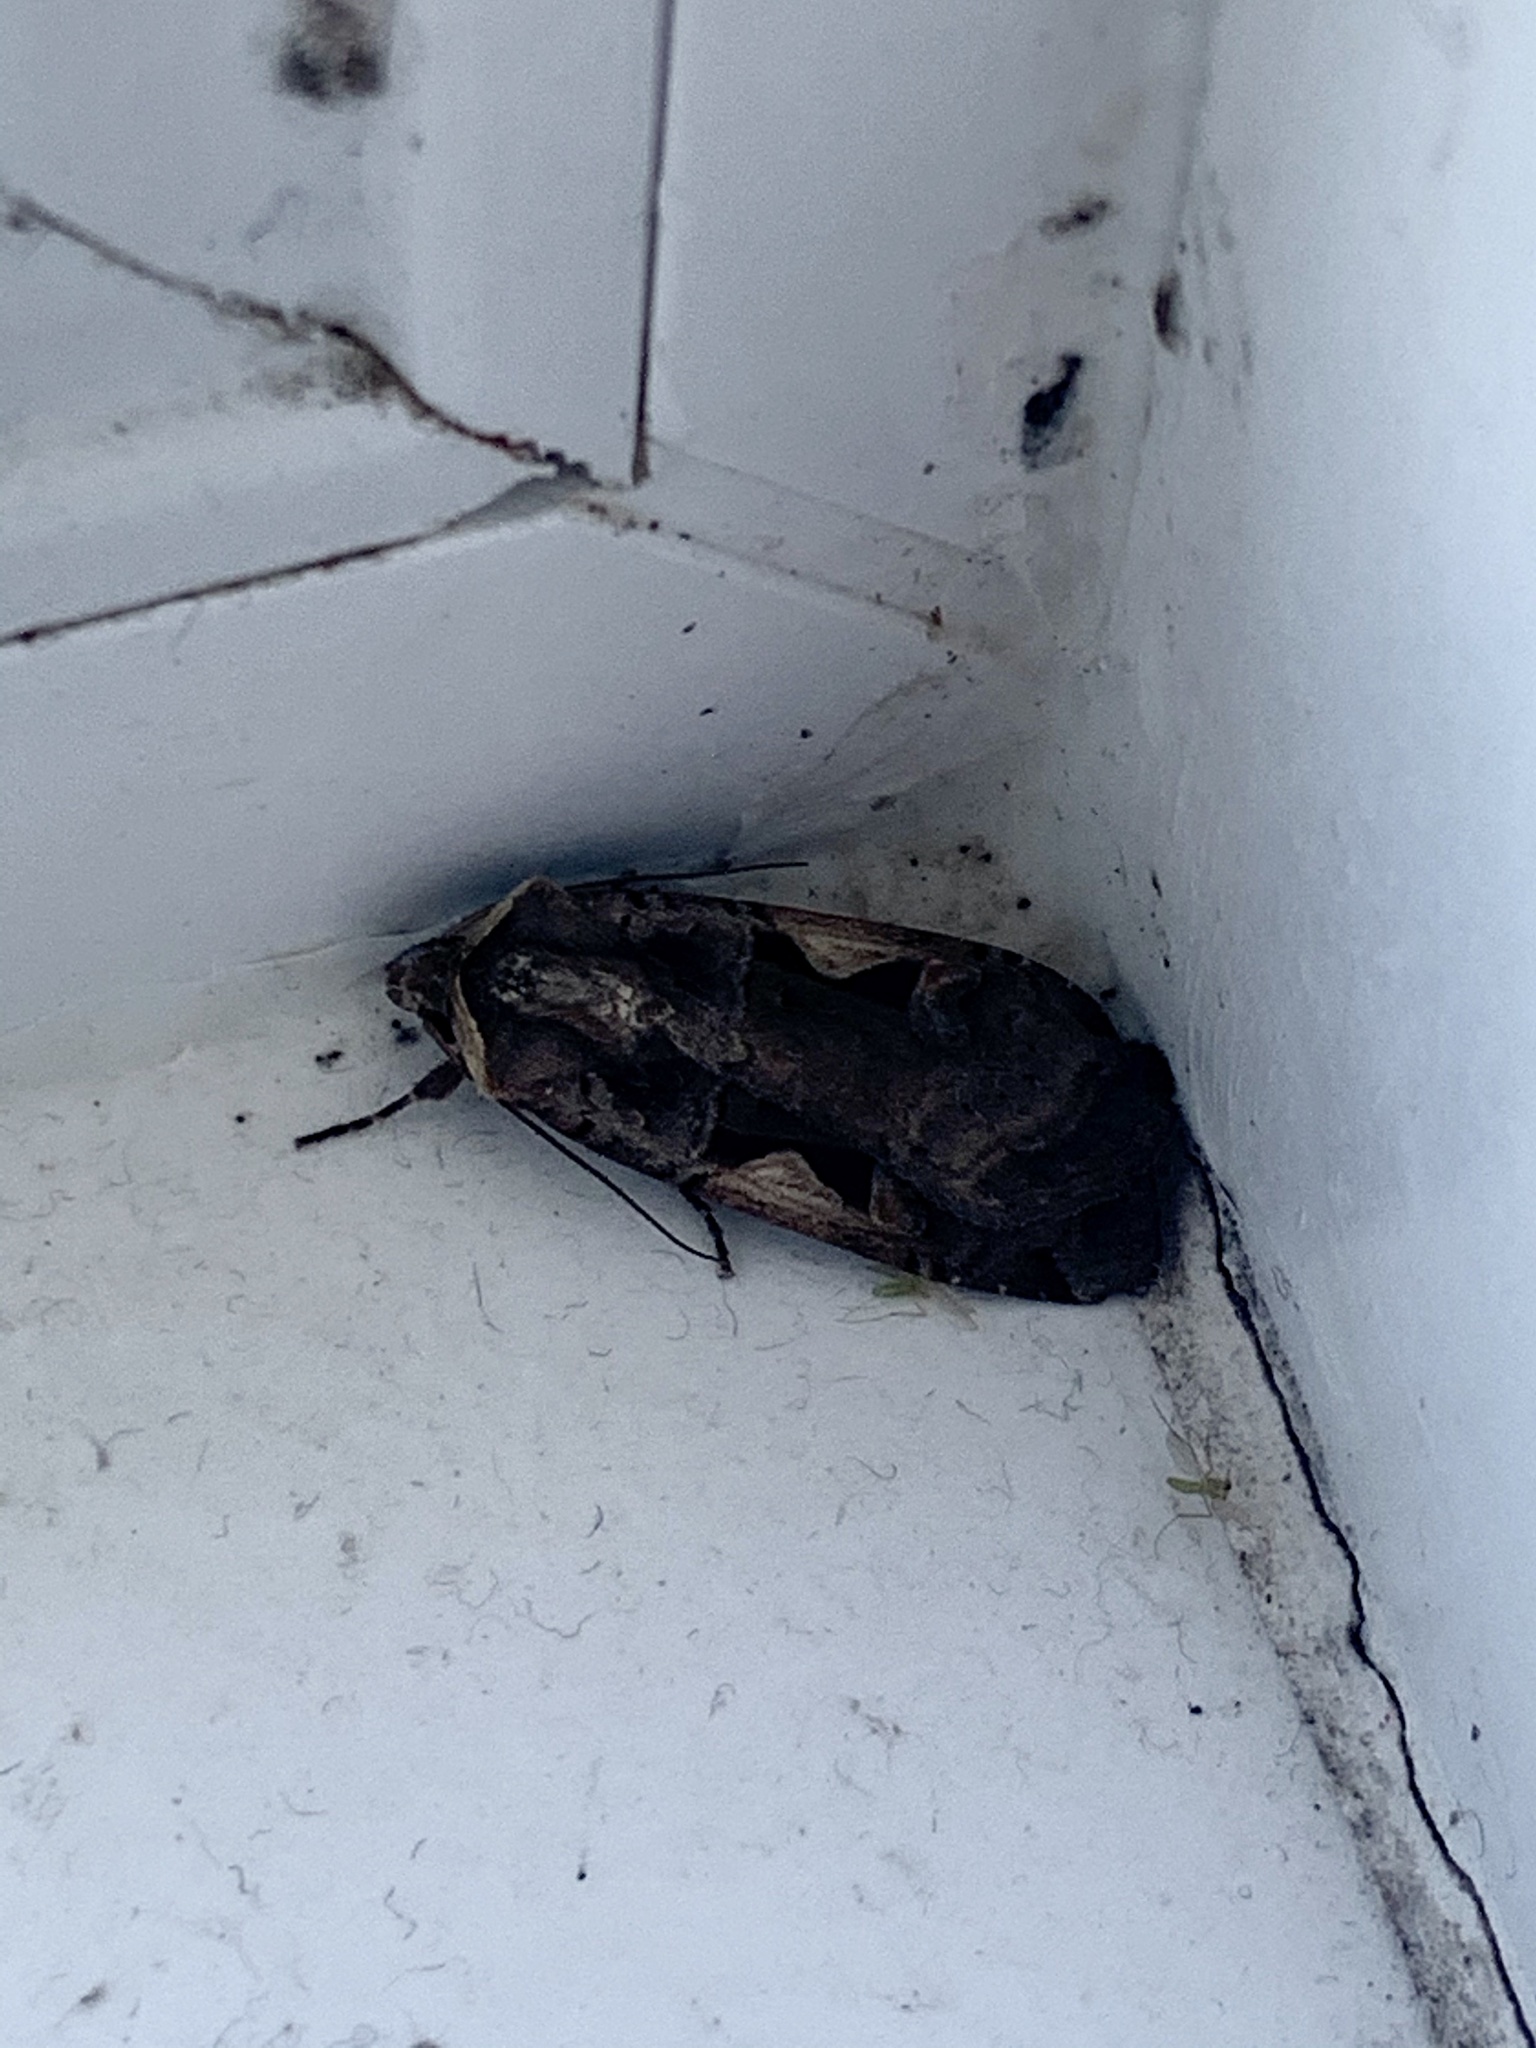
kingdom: Animalia
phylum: Arthropoda
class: Insecta
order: Lepidoptera
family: Noctuidae
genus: Xestia
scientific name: Xestia c-nigrum
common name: Setaceous hebrew character
